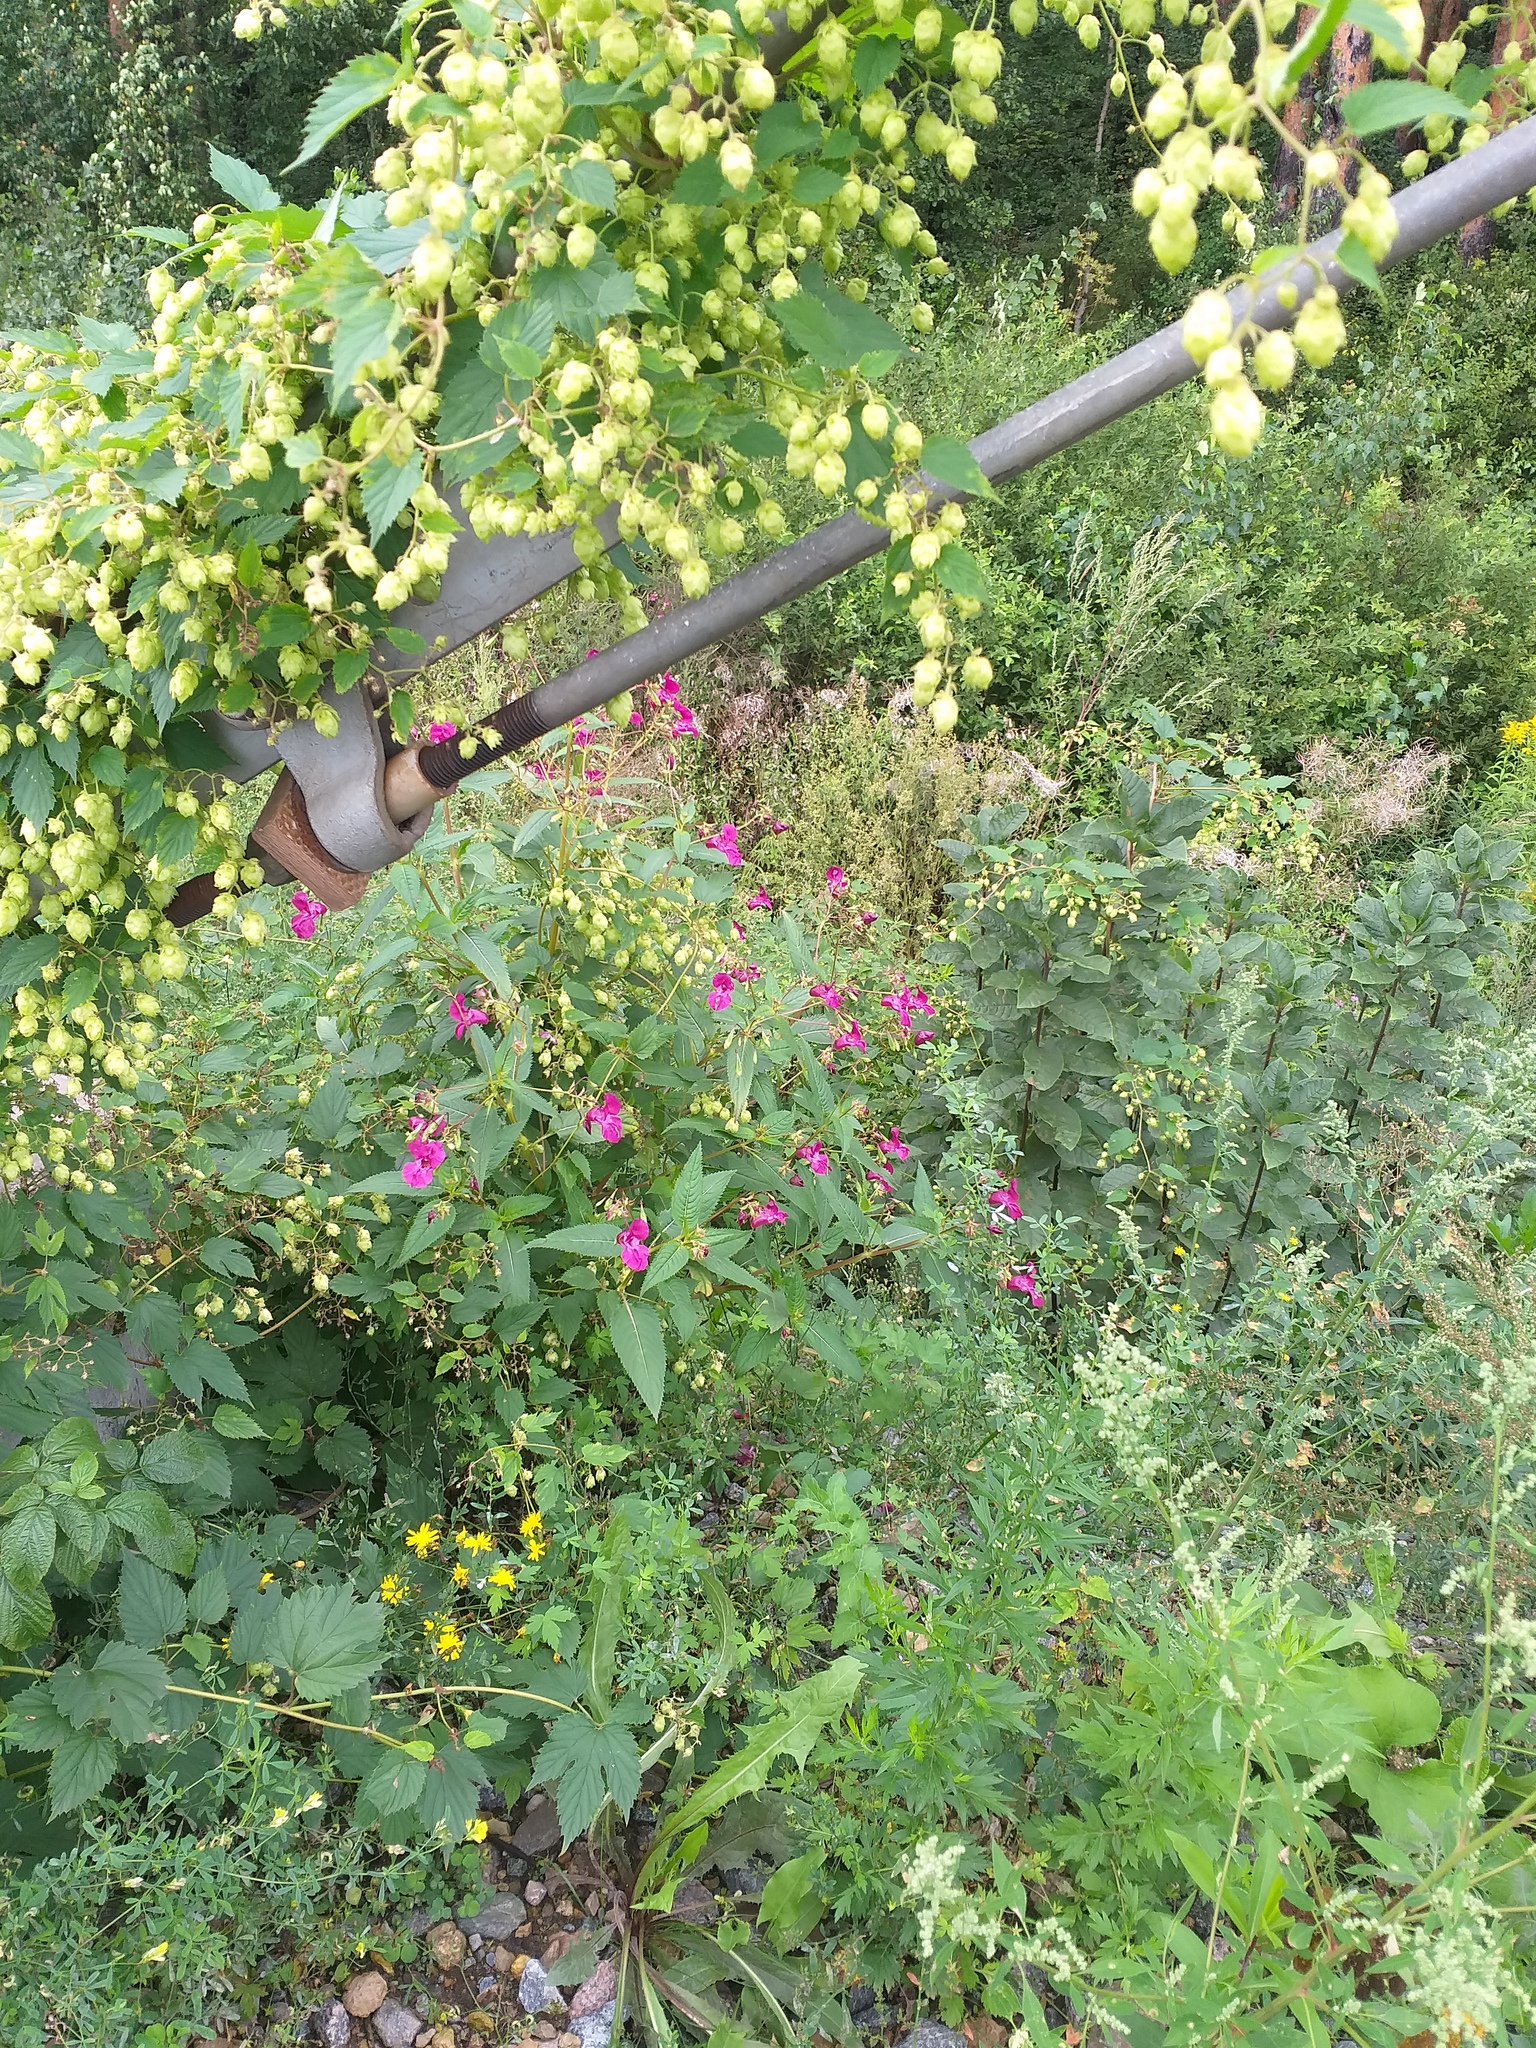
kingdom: Plantae
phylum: Tracheophyta
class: Magnoliopsida
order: Ericales
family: Balsaminaceae
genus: Impatiens
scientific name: Impatiens glandulifera
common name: Himalayan balsam
